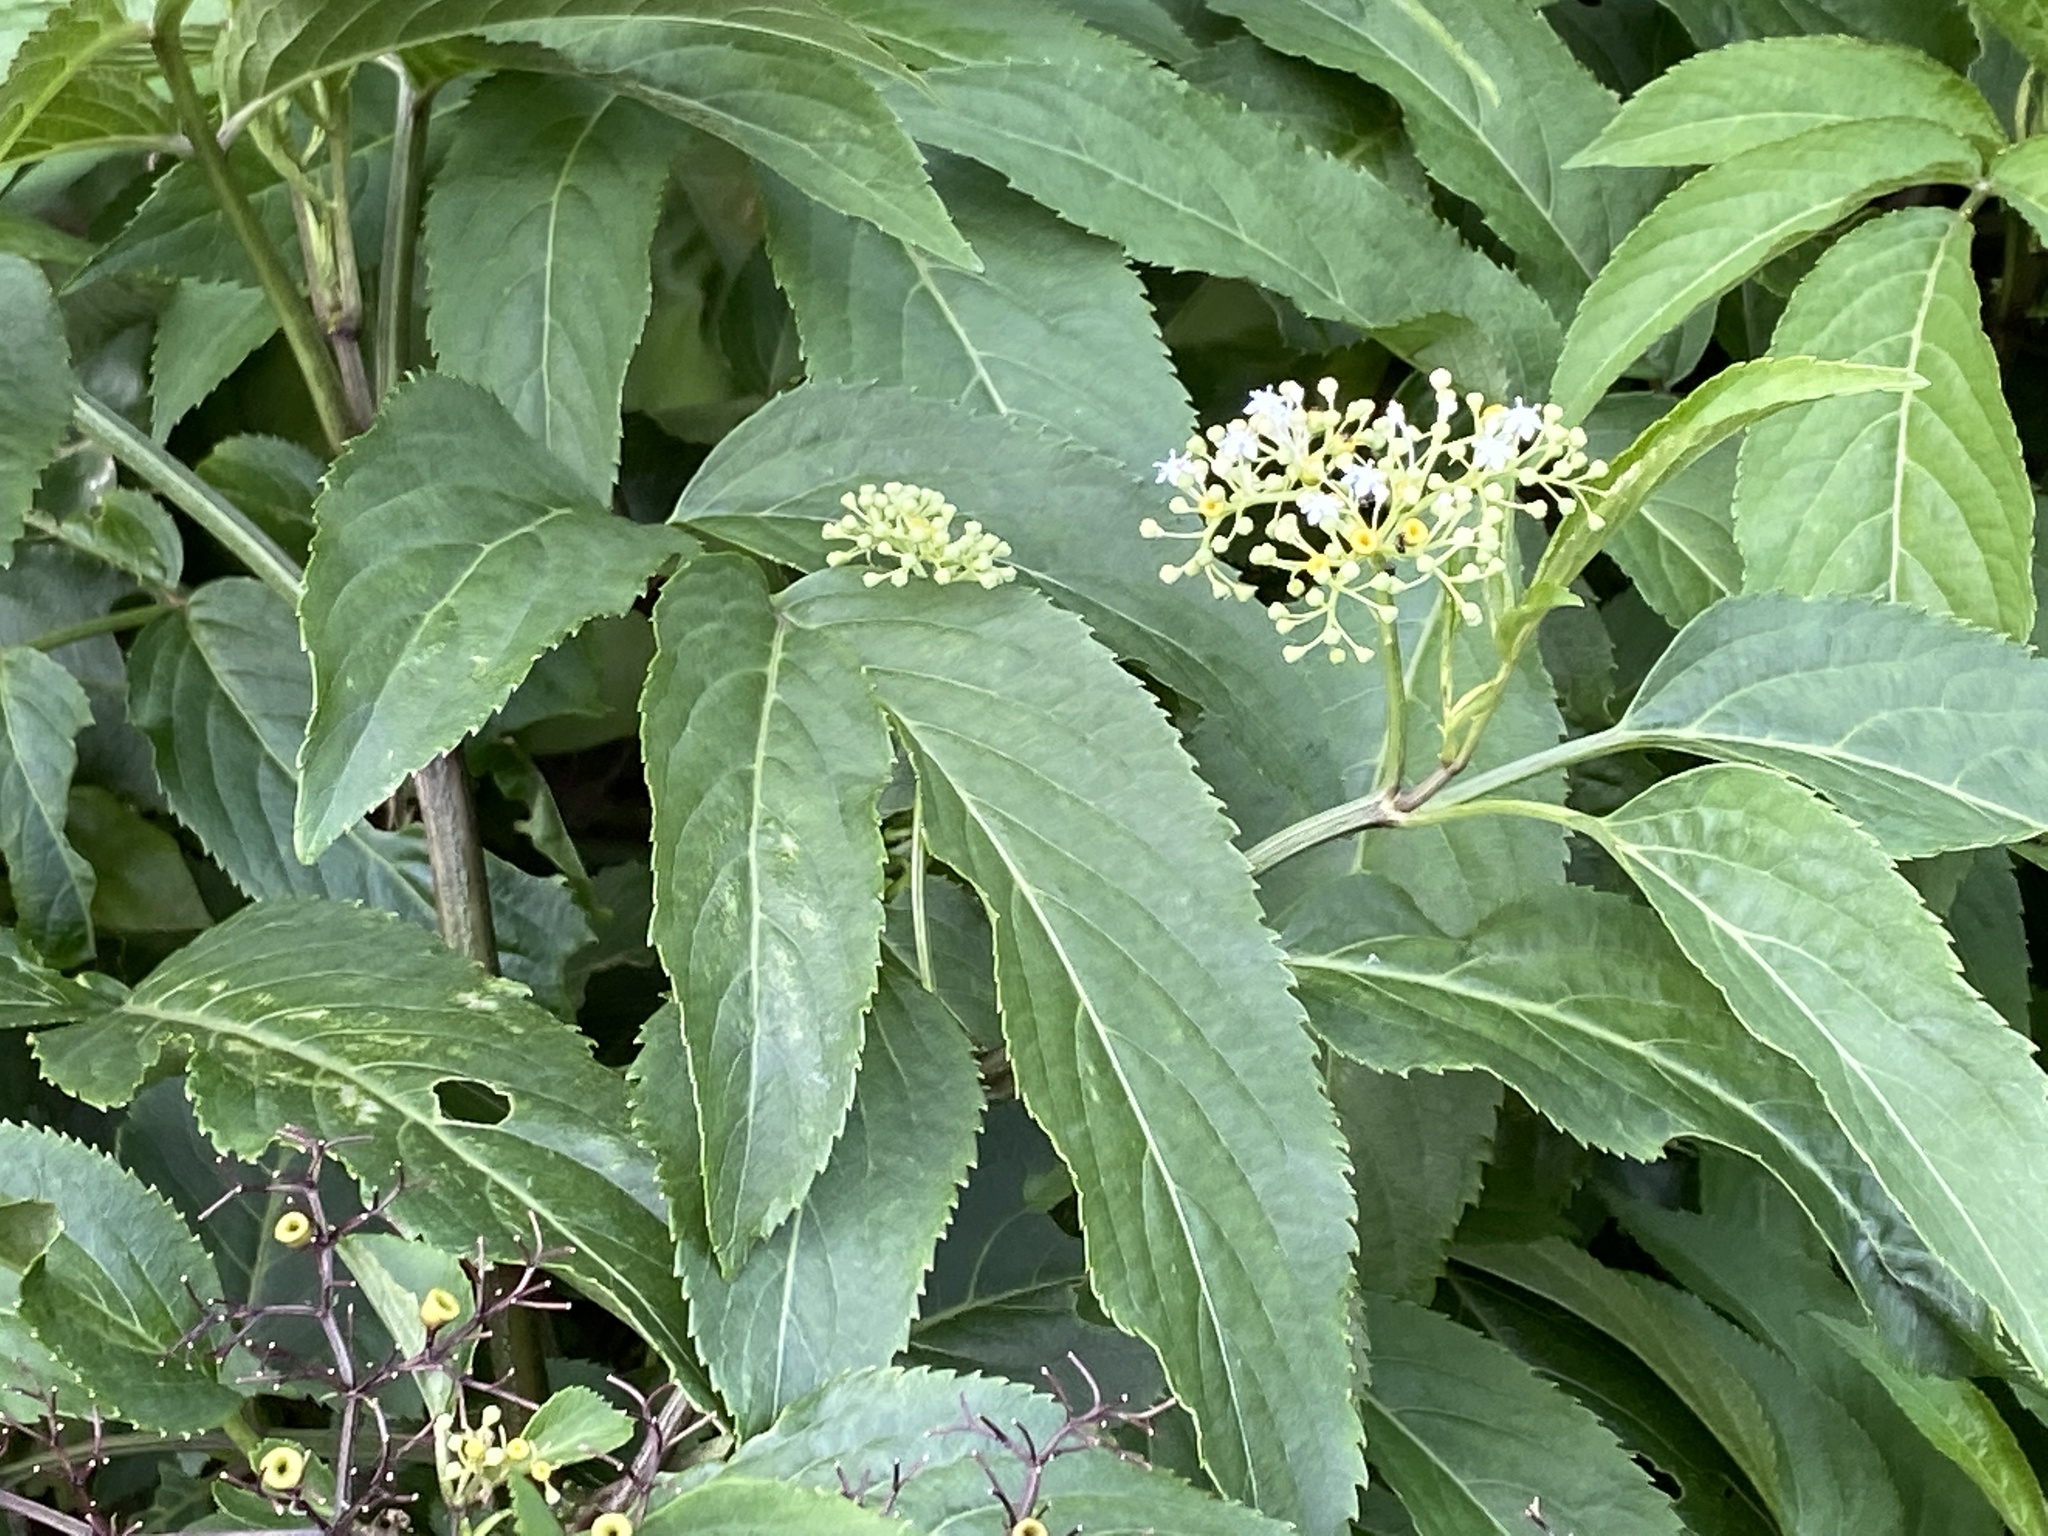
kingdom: Plantae
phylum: Tracheophyta
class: Magnoliopsida
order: Dipsacales
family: Viburnaceae
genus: Sambucus
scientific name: Sambucus javanica
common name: Chinese elder
